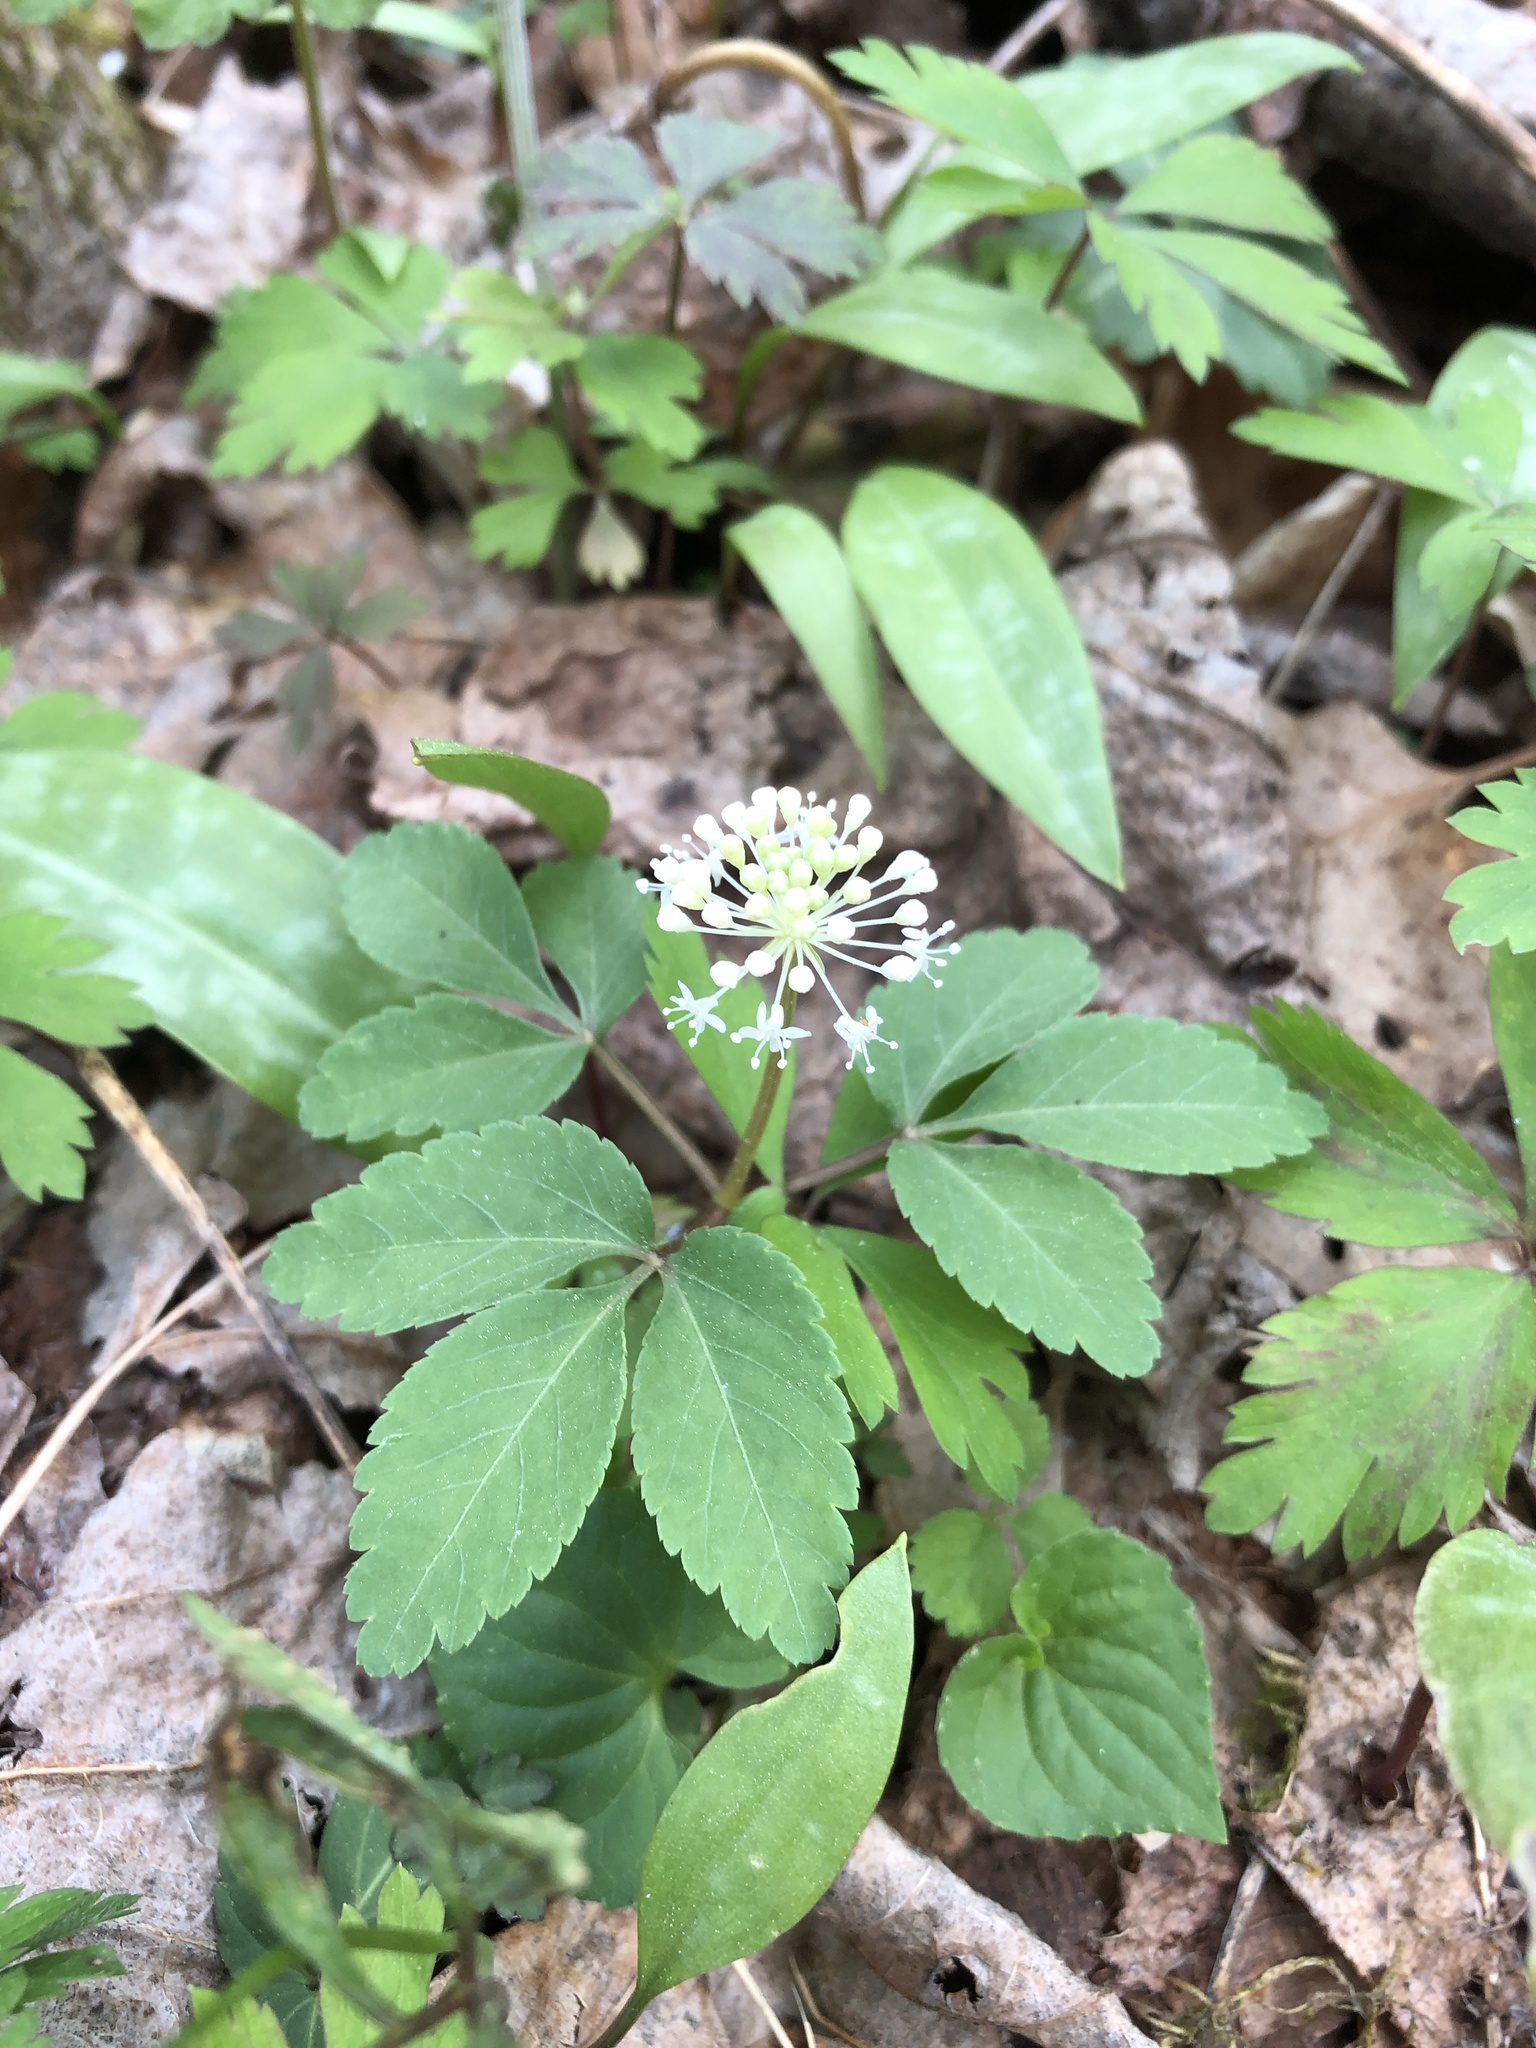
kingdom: Plantae
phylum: Tracheophyta
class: Magnoliopsida
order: Apiales
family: Araliaceae
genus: Panax
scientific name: Panax trifolius
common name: Dwarf ginseng
